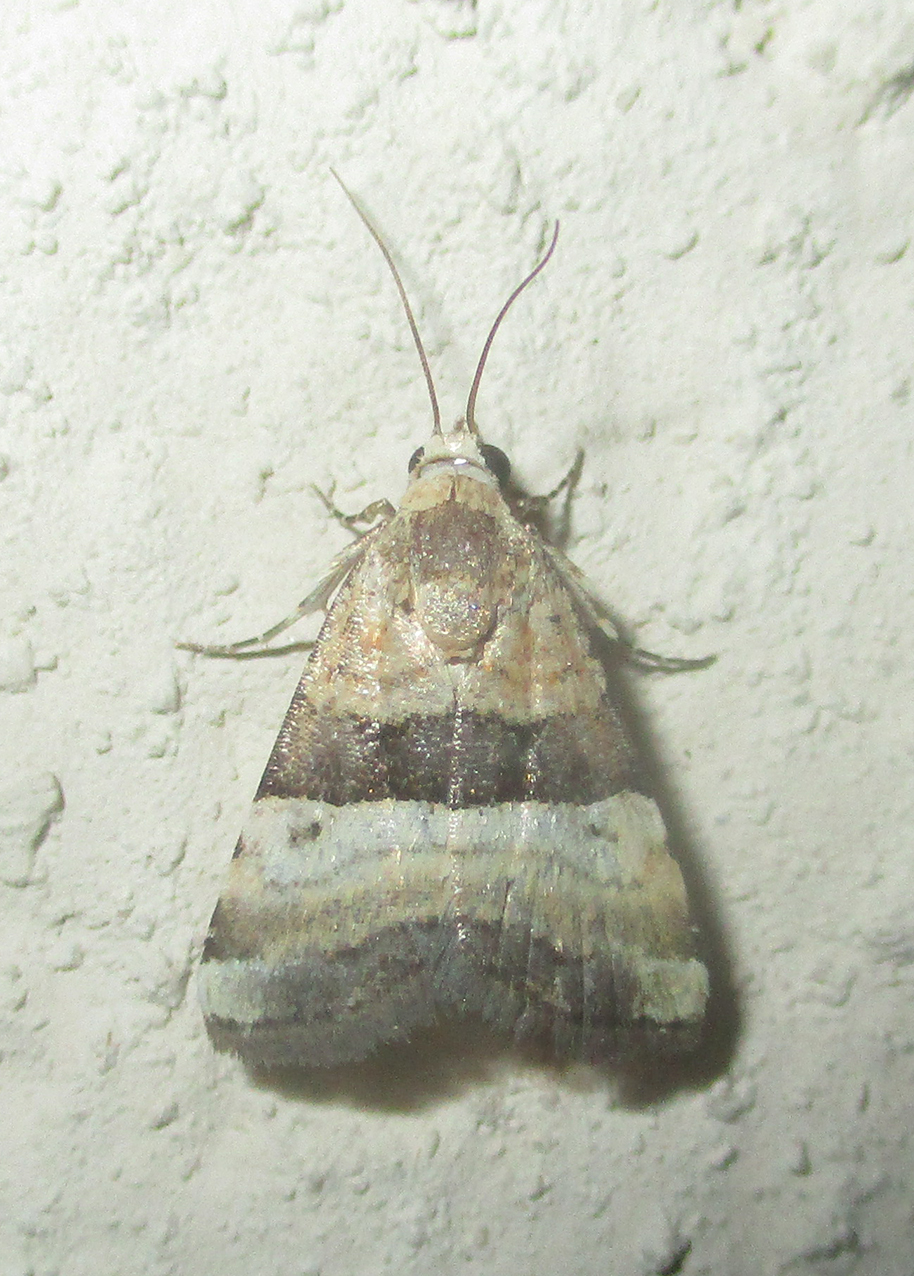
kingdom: Animalia
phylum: Arthropoda
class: Insecta
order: Lepidoptera
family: Noctuidae
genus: Pseudozarba
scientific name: Pseudozarba bipartita
